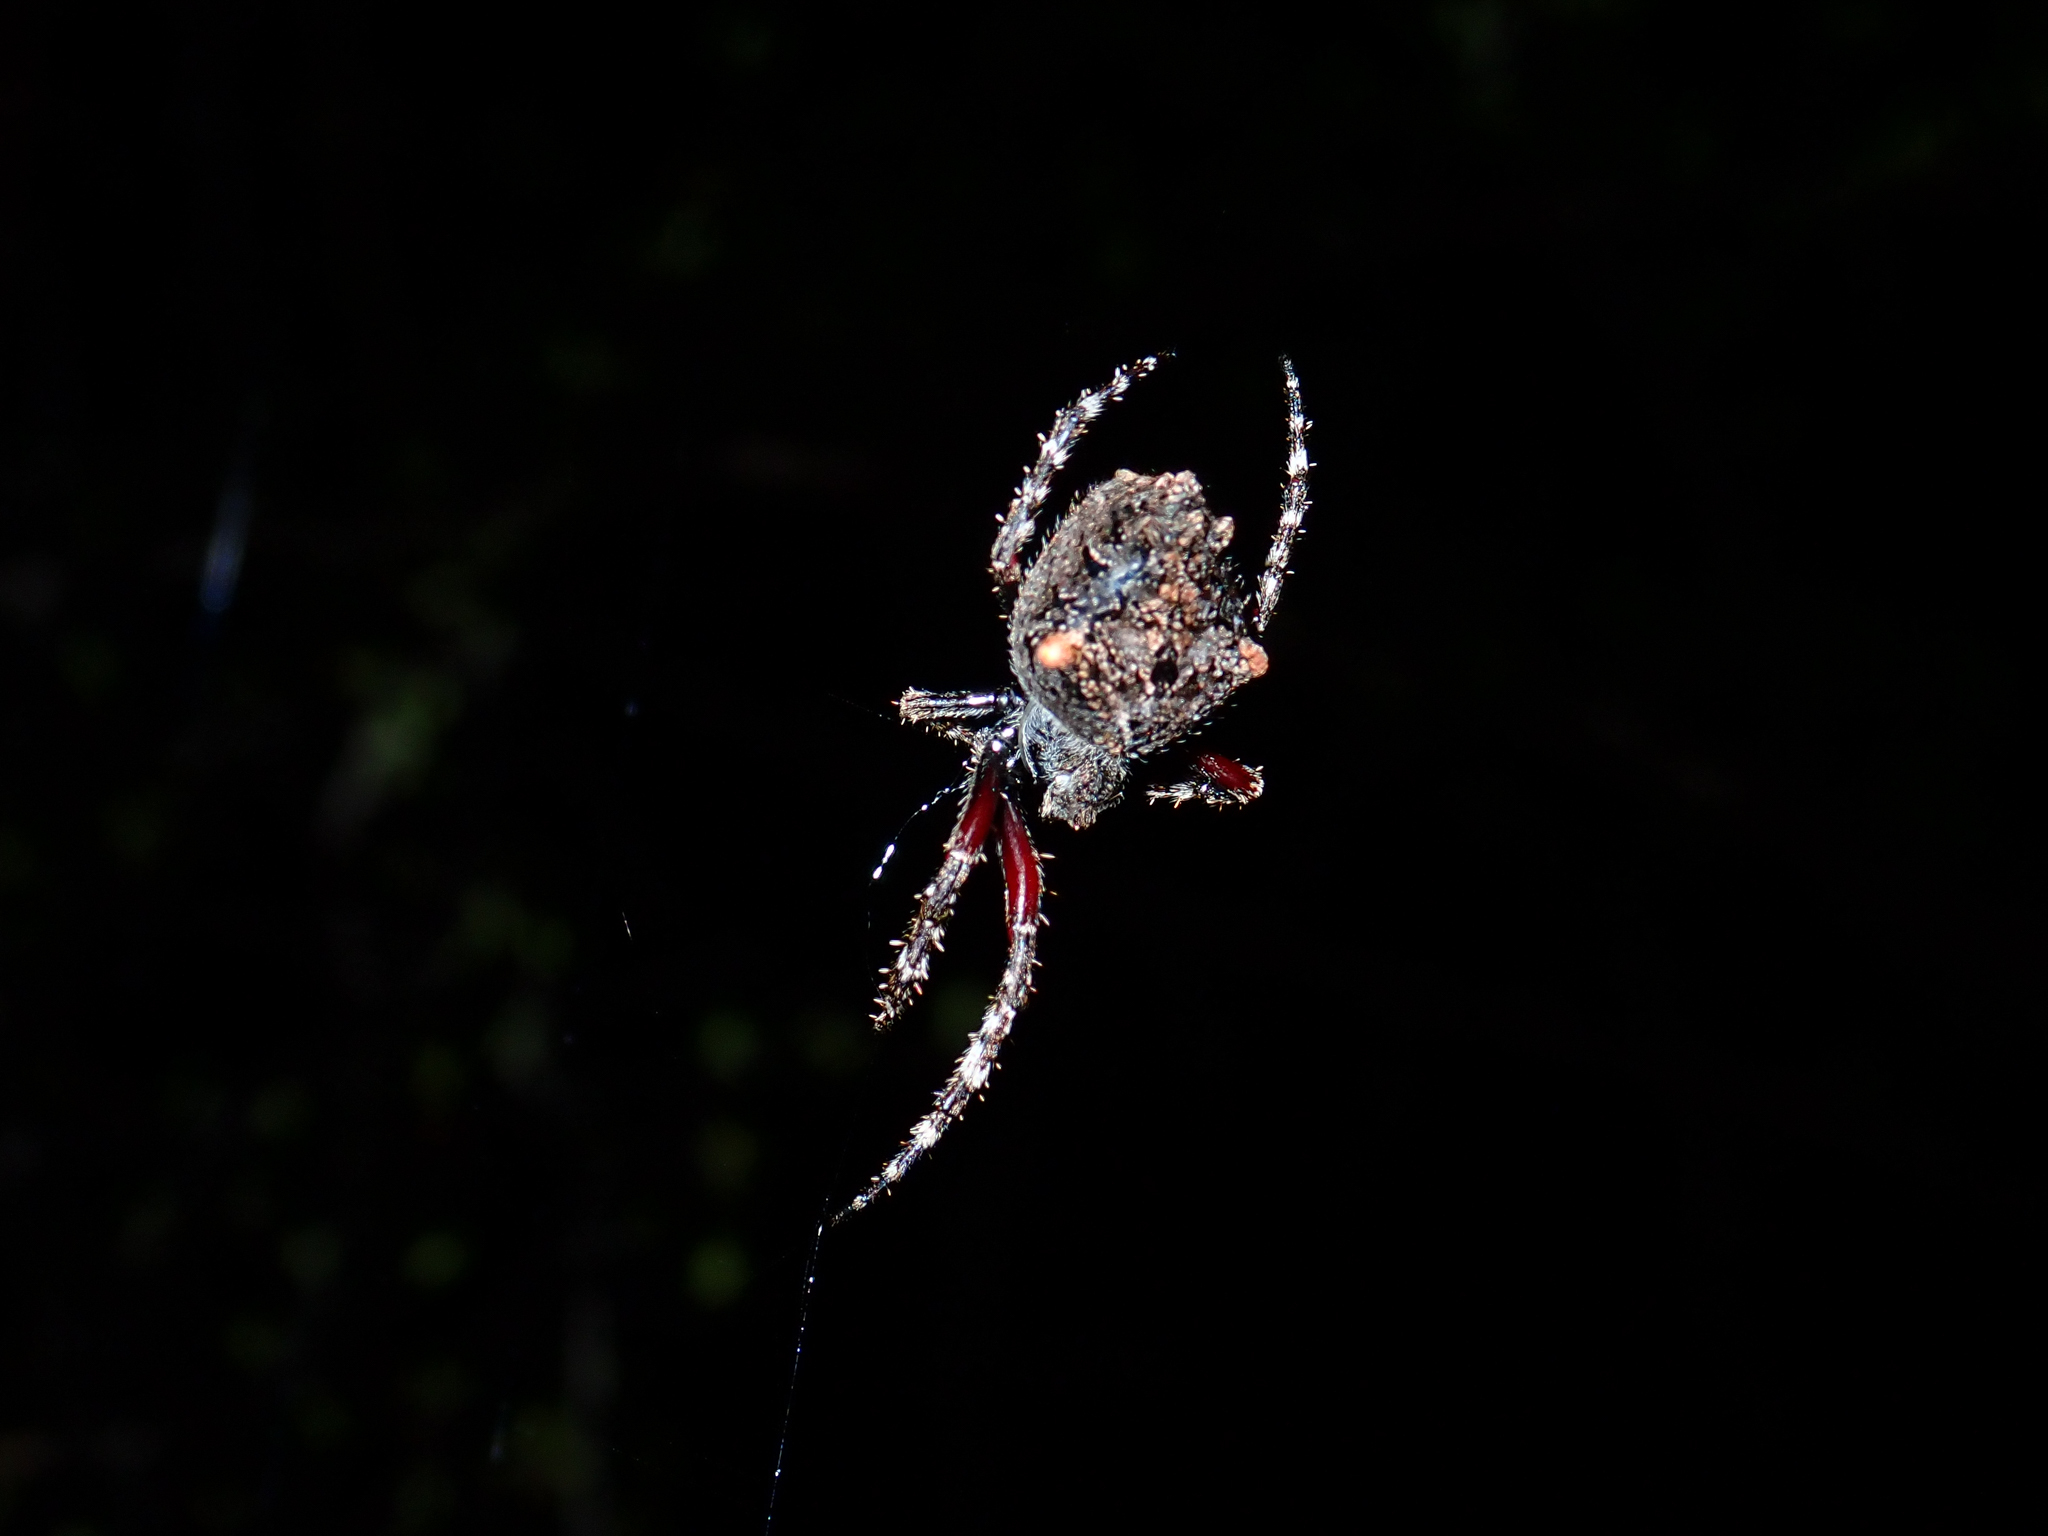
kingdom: Animalia
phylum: Arthropoda
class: Arachnida
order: Araneae
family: Araneidae
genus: Eriophora
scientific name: Eriophora pustulosa
